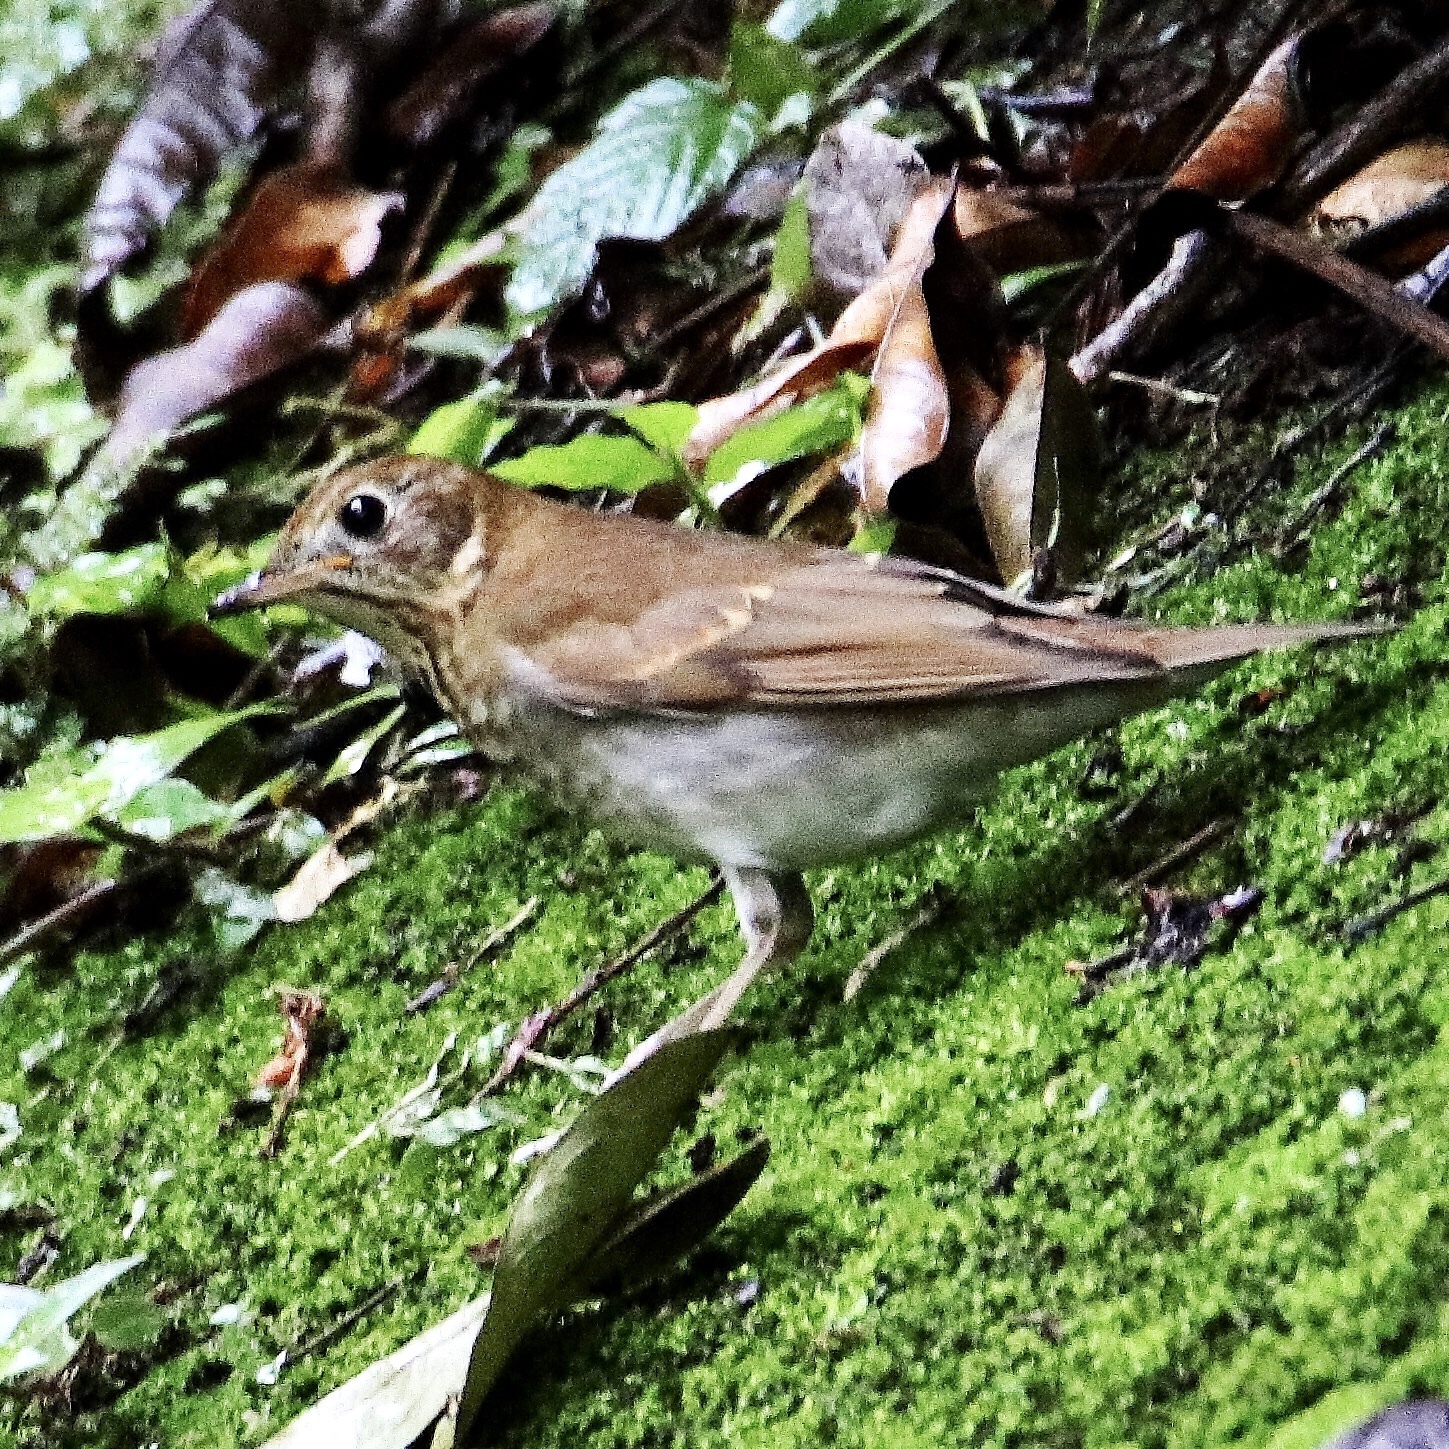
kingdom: Animalia
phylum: Chordata
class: Aves
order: Passeriformes
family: Turdidae
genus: Catharus
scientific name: Catharus fuscescens
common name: Veery
